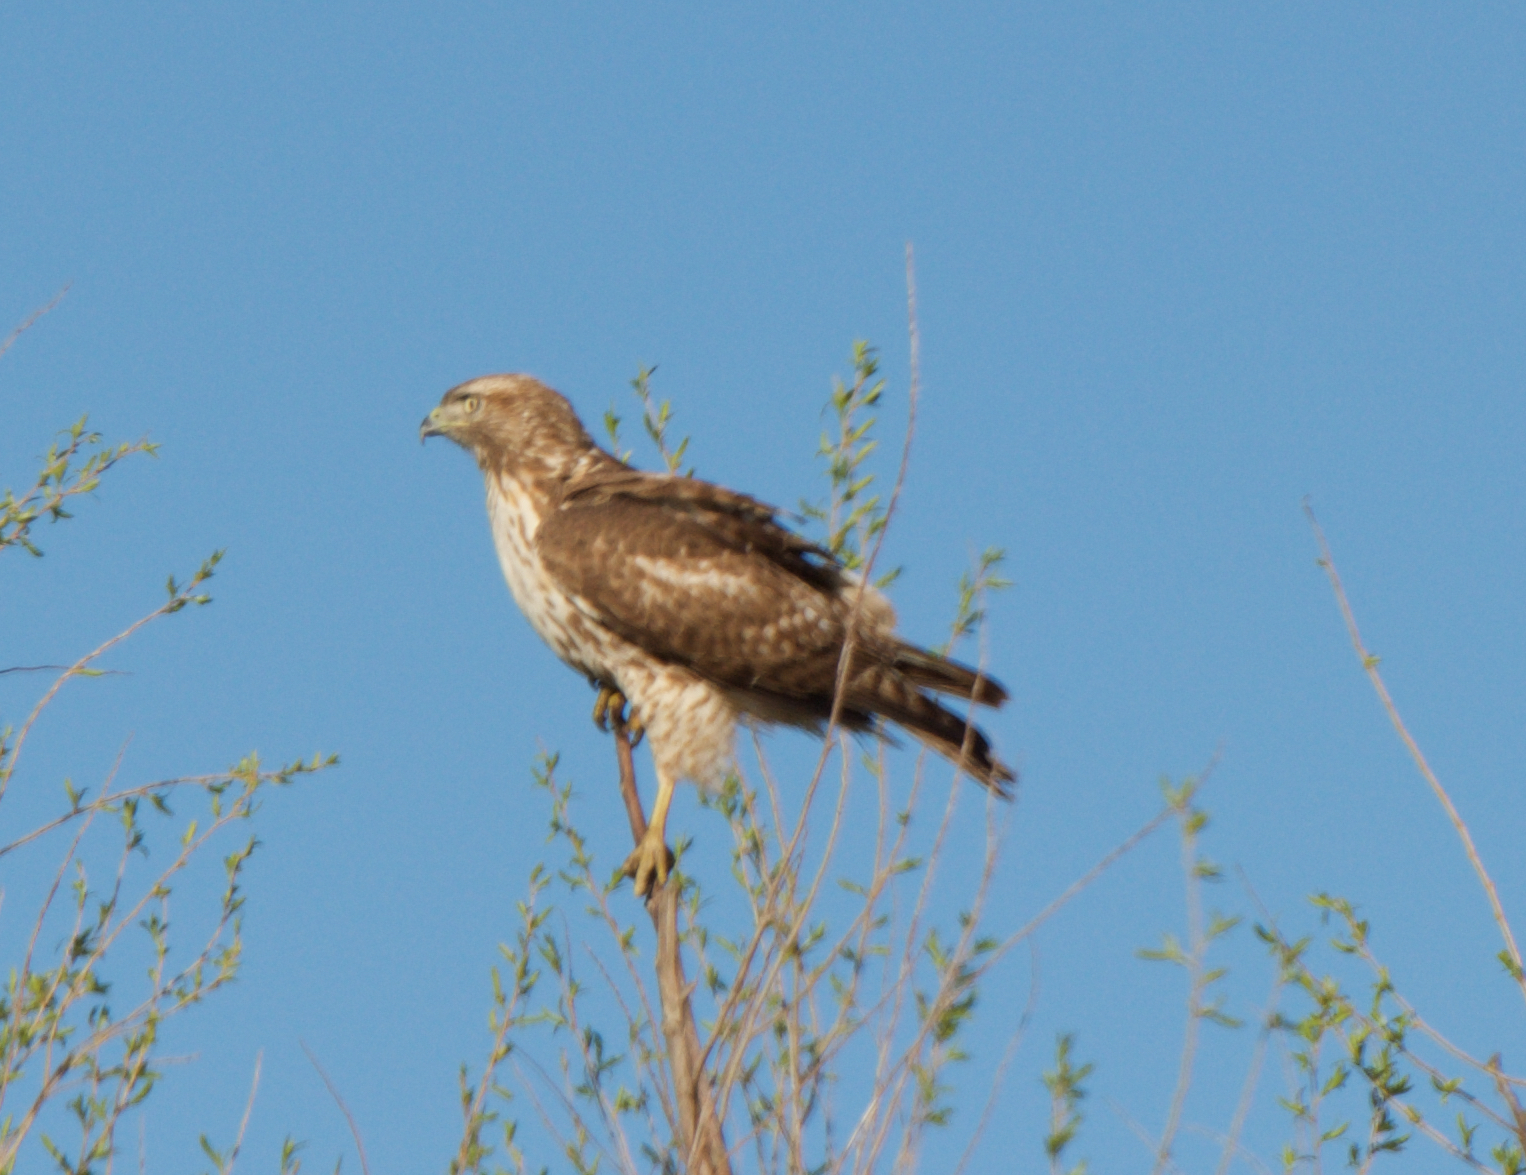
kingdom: Animalia
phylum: Chordata
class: Aves
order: Accipitriformes
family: Accipitridae
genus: Buteo
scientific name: Buteo jamaicensis
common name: Red-tailed hawk
